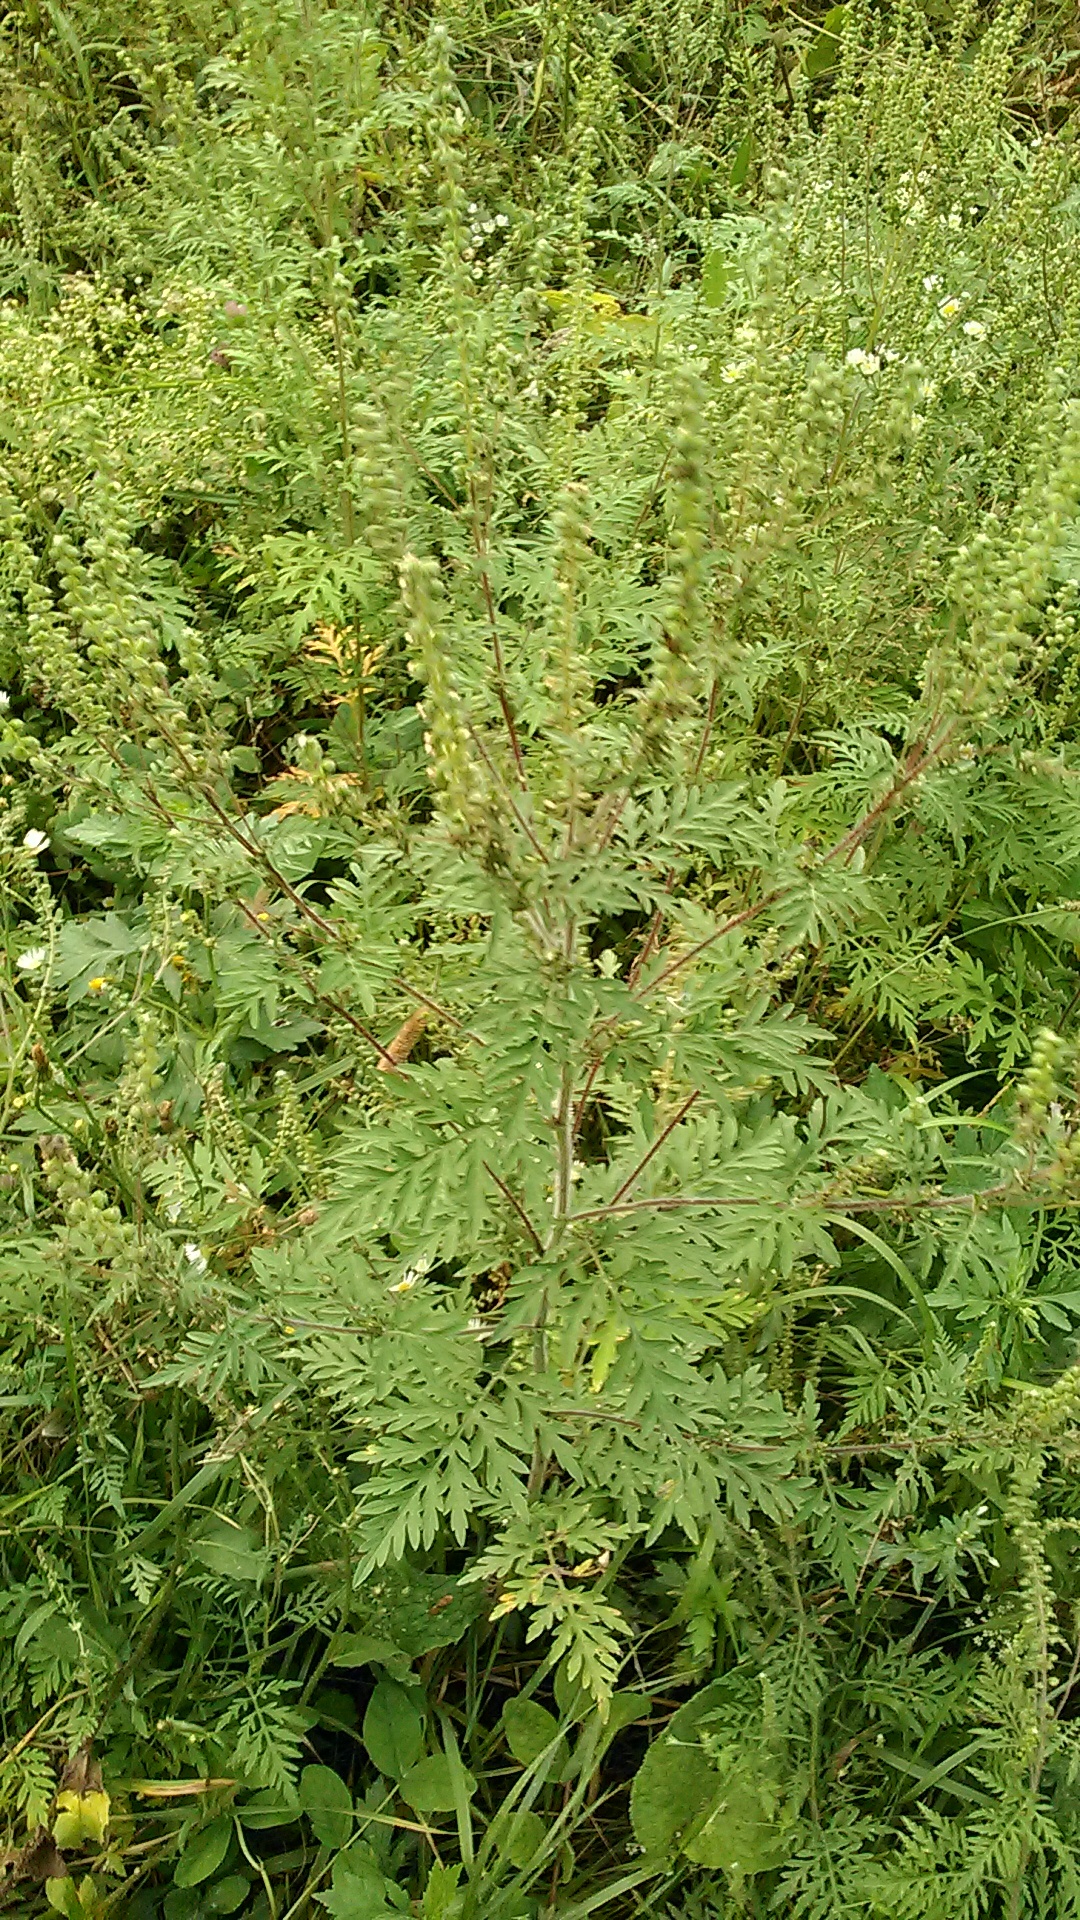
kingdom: Plantae
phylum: Tracheophyta
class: Magnoliopsida
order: Asterales
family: Asteraceae
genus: Ambrosia
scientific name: Ambrosia artemisiifolia
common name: Annual ragweed
